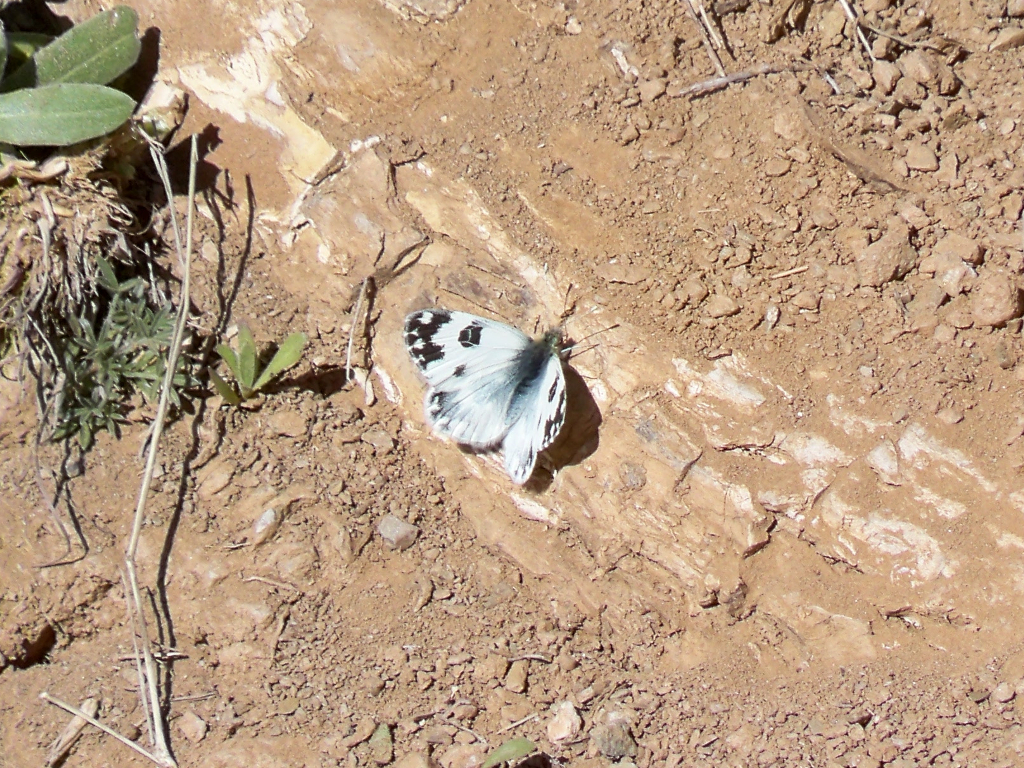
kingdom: Animalia
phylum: Arthropoda
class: Insecta
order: Lepidoptera
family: Pieridae
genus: Pontia
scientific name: Pontia daplidice
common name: Bath white
